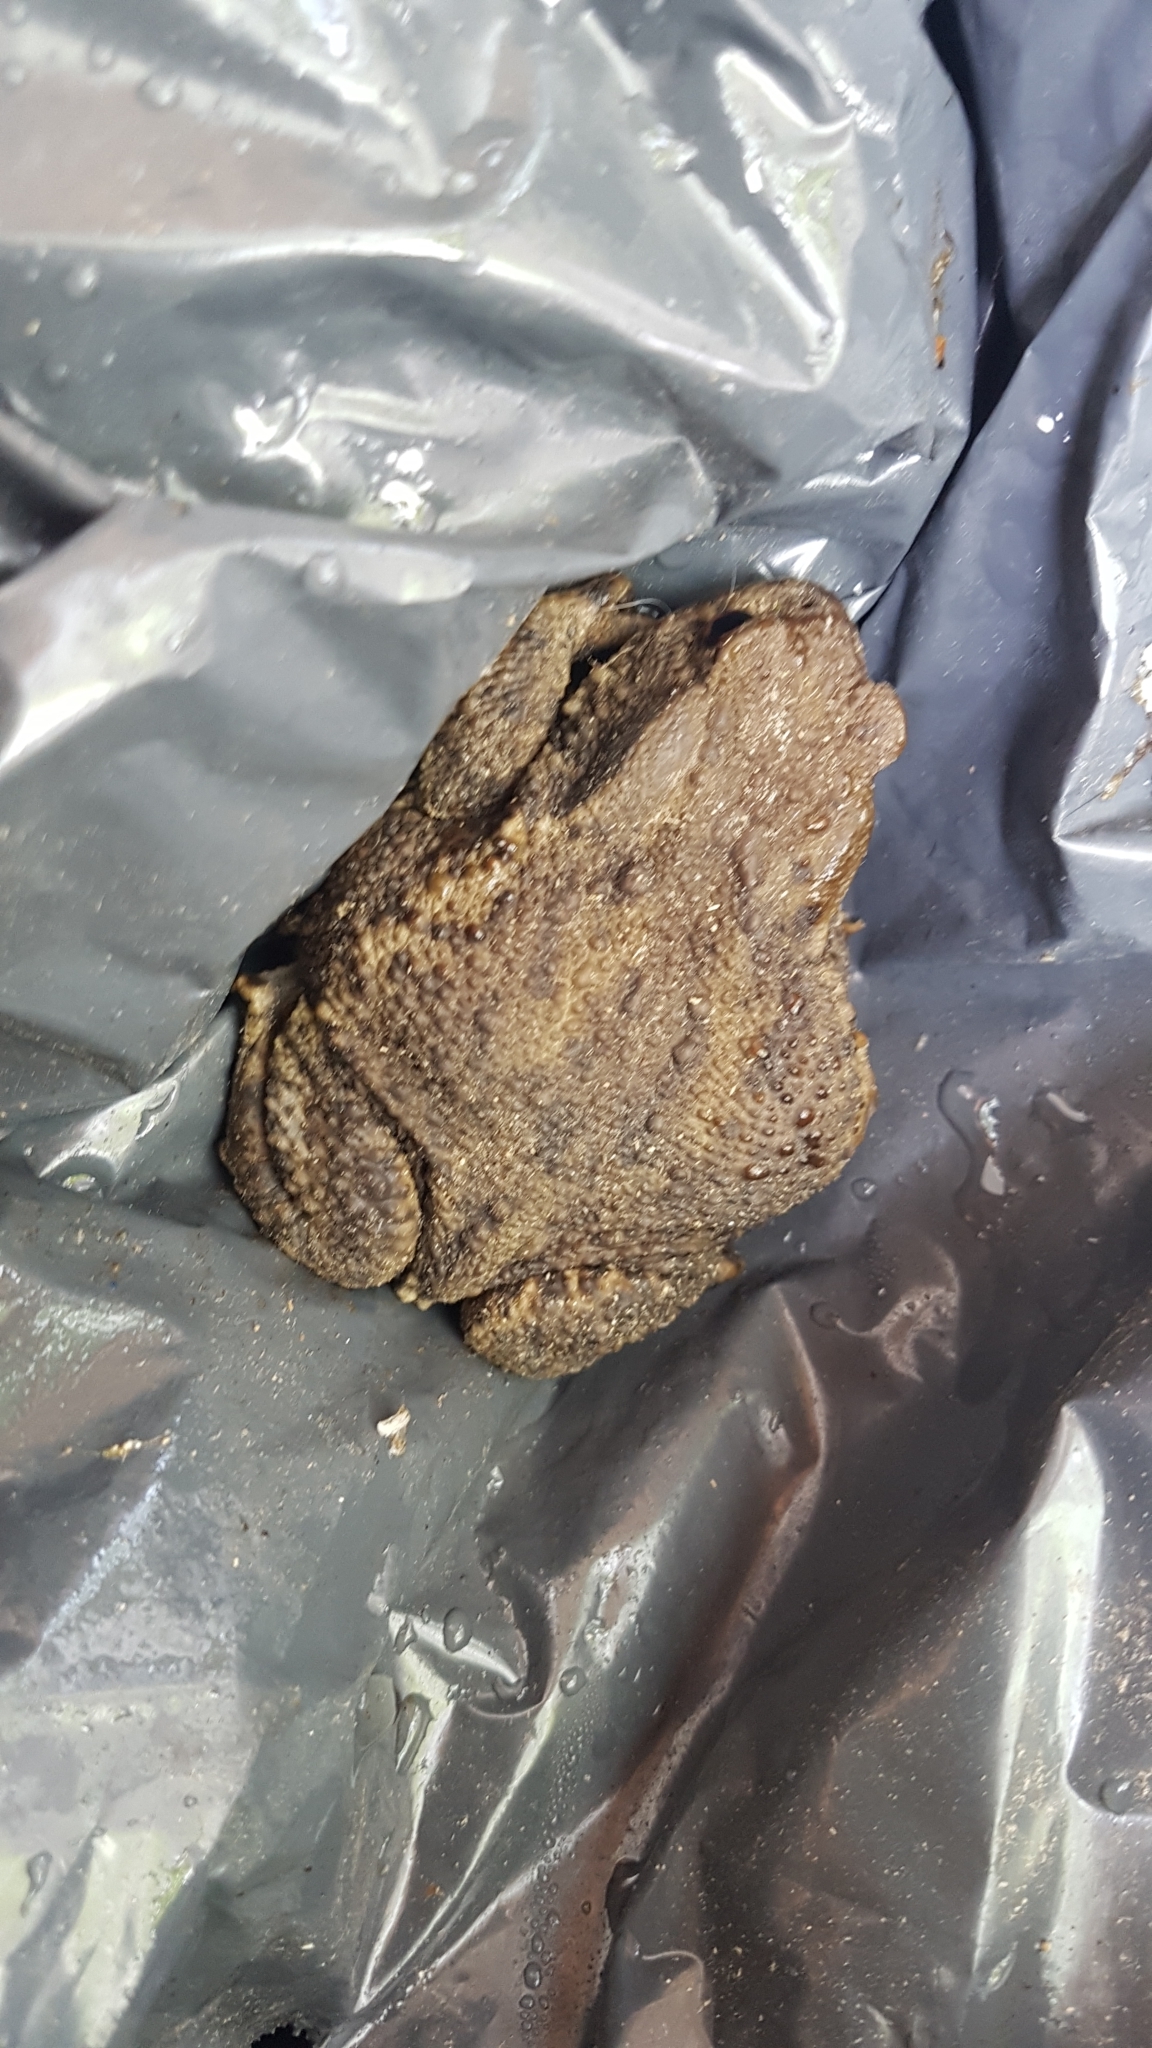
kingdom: Animalia
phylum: Chordata
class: Amphibia
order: Anura
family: Bufonidae
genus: Bufo
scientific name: Bufo bufo
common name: Common toad
